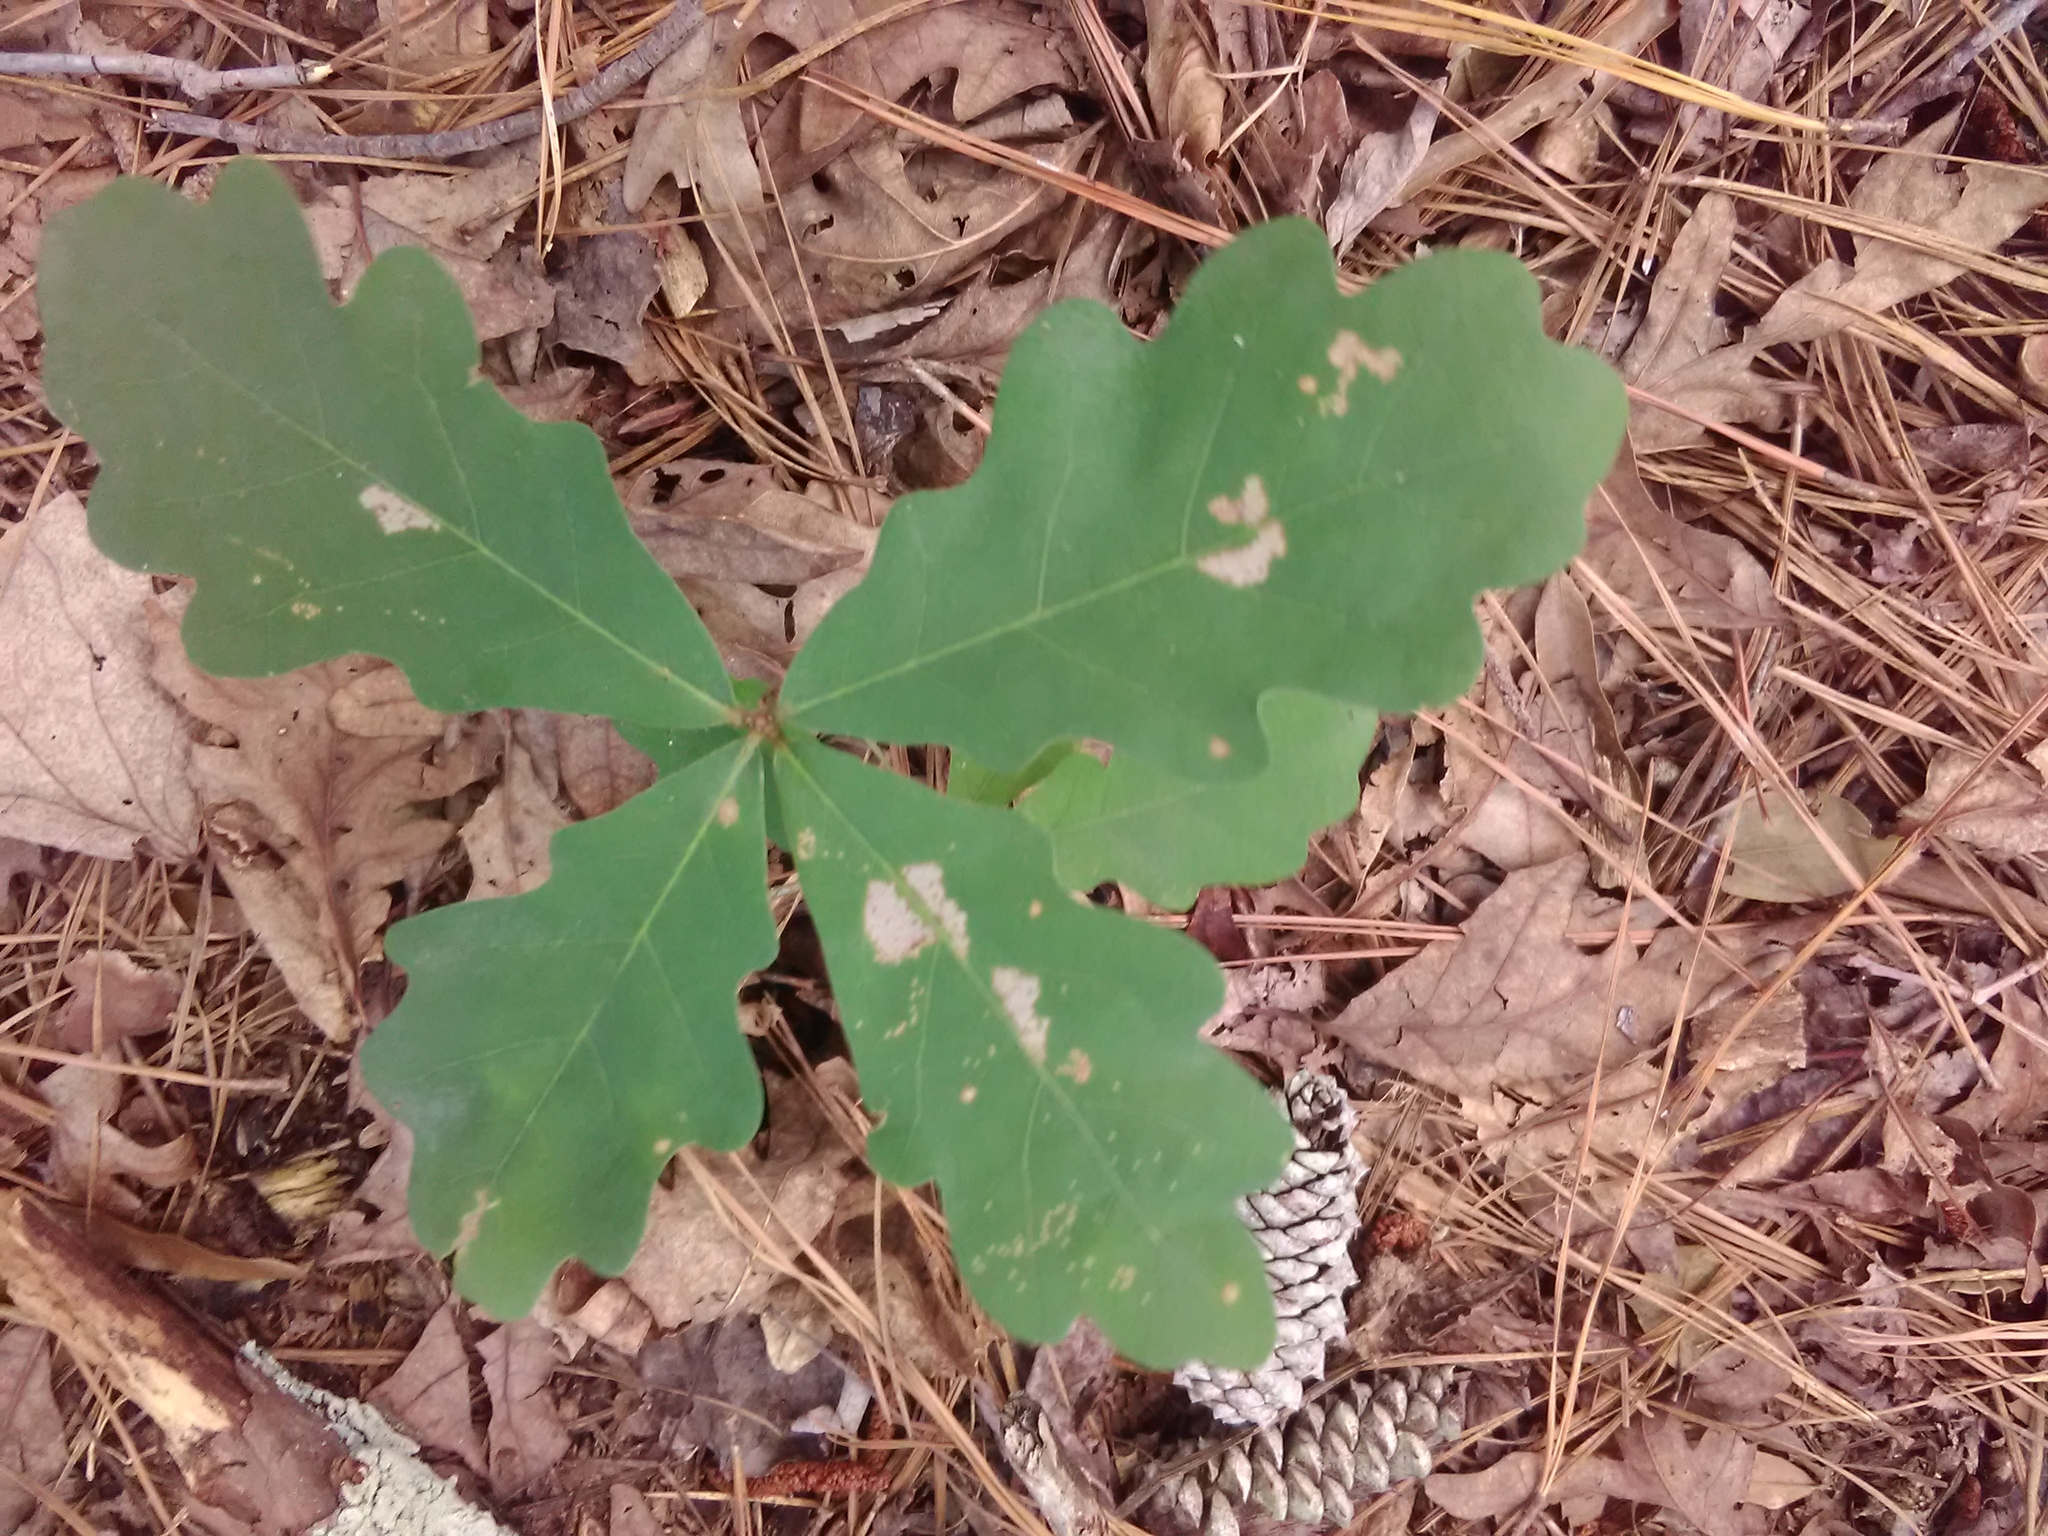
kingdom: Plantae
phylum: Tracheophyta
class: Magnoliopsida
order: Fagales
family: Fagaceae
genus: Quercus
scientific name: Quercus alba
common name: White oak
